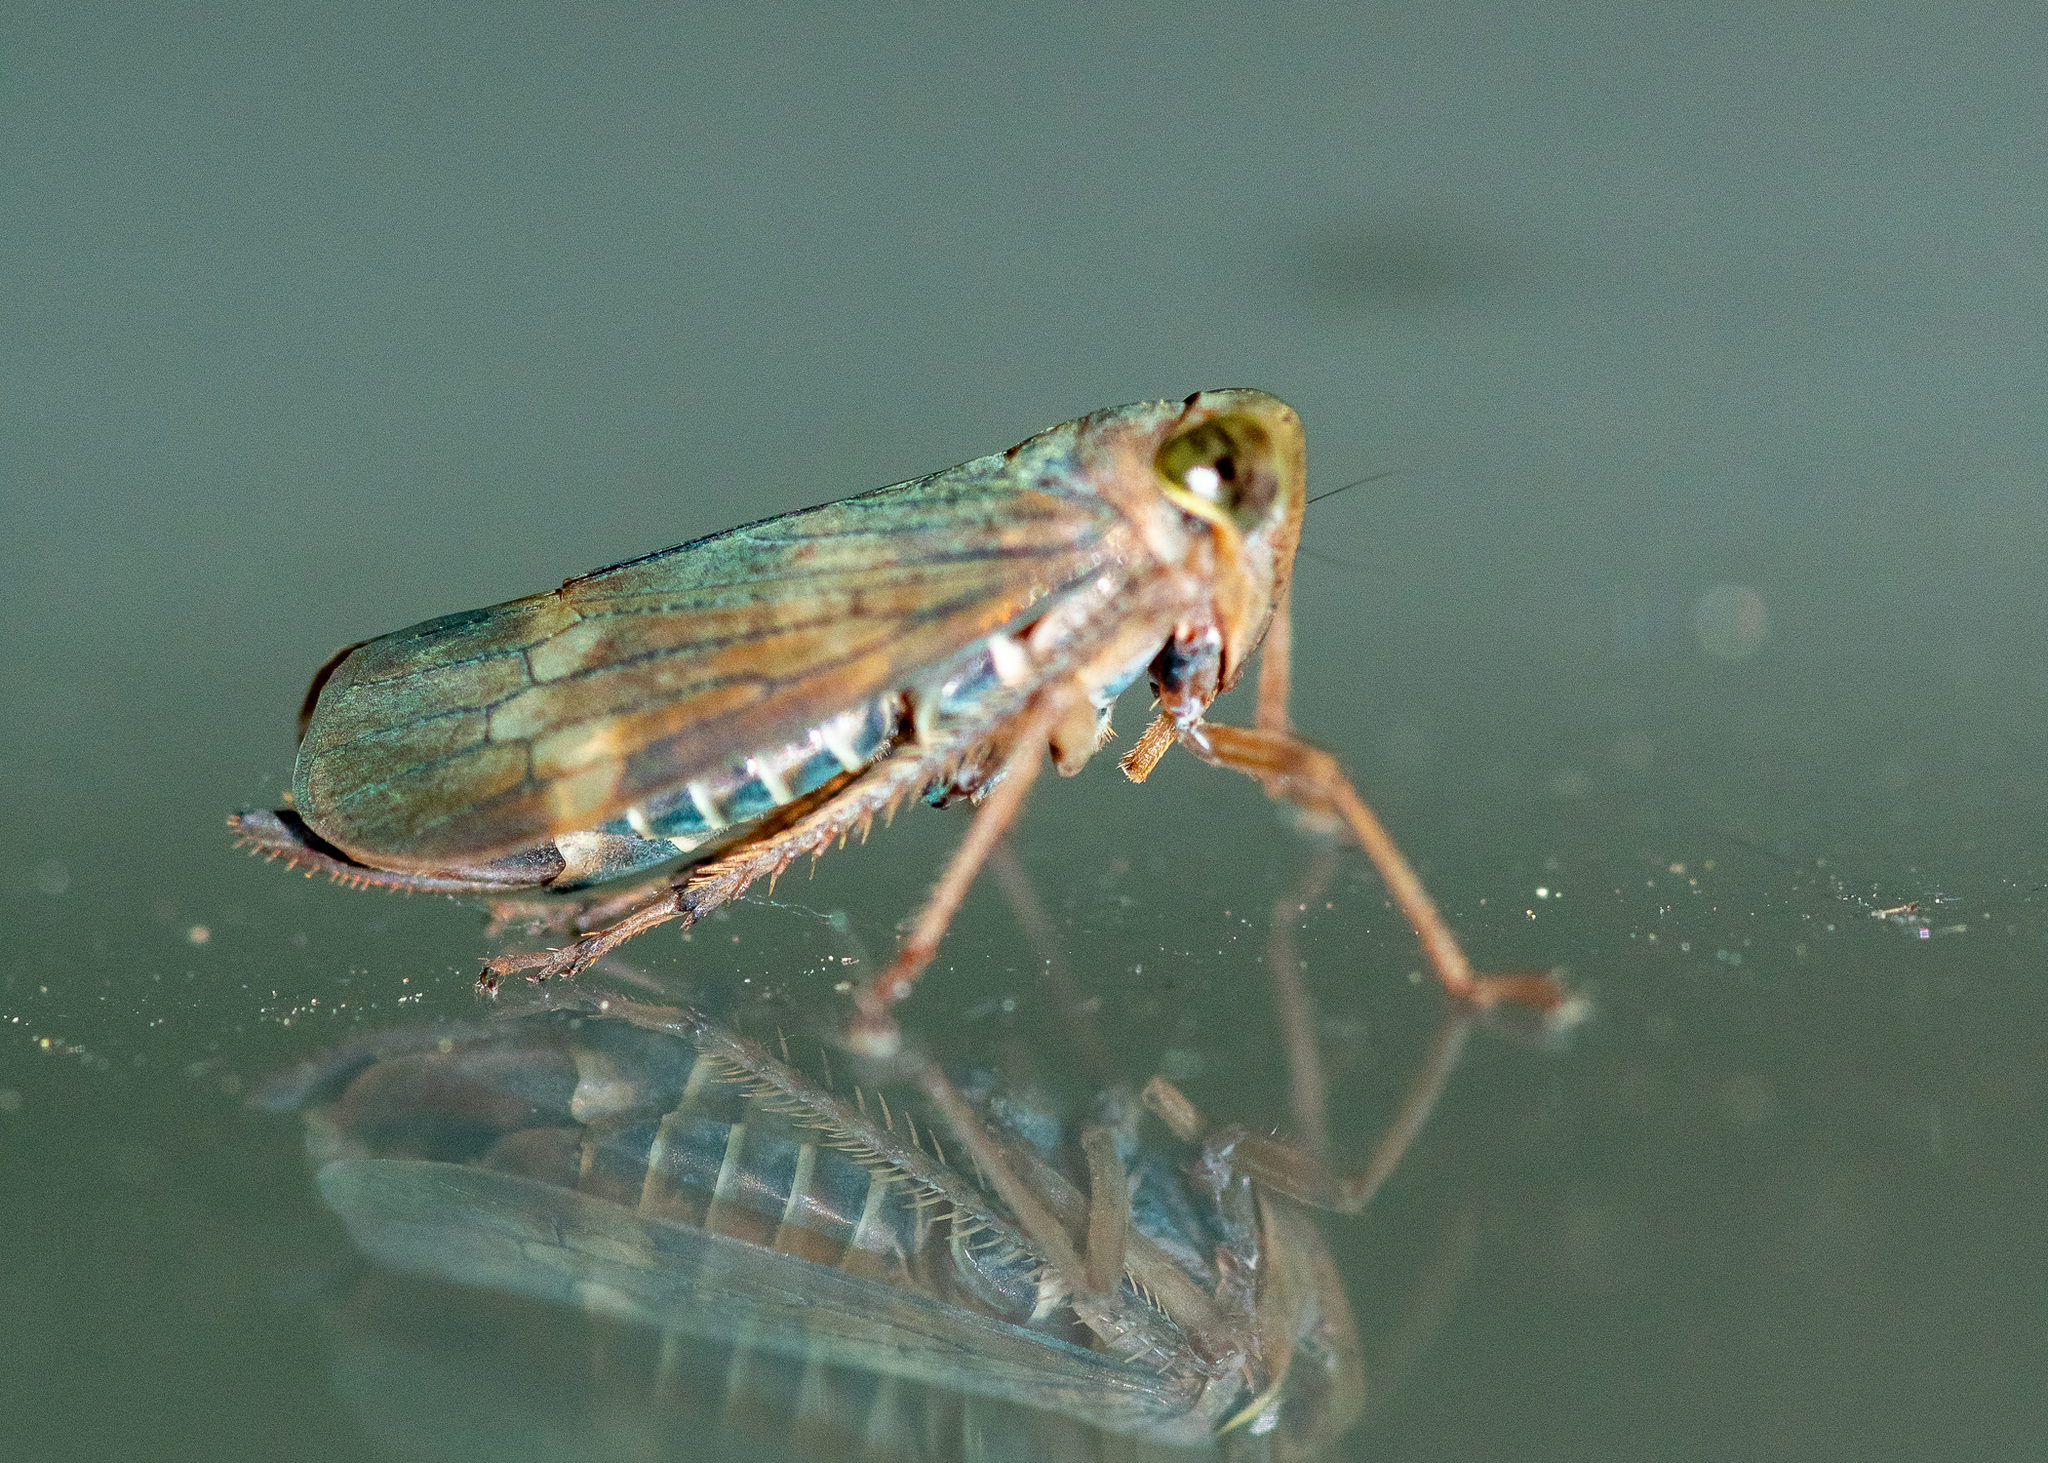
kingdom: Animalia
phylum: Arthropoda
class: Insecta
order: Hemiptera
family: Cicadellidae
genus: Jikradia
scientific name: Jikradia olitoria
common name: Coppery leafhopper
